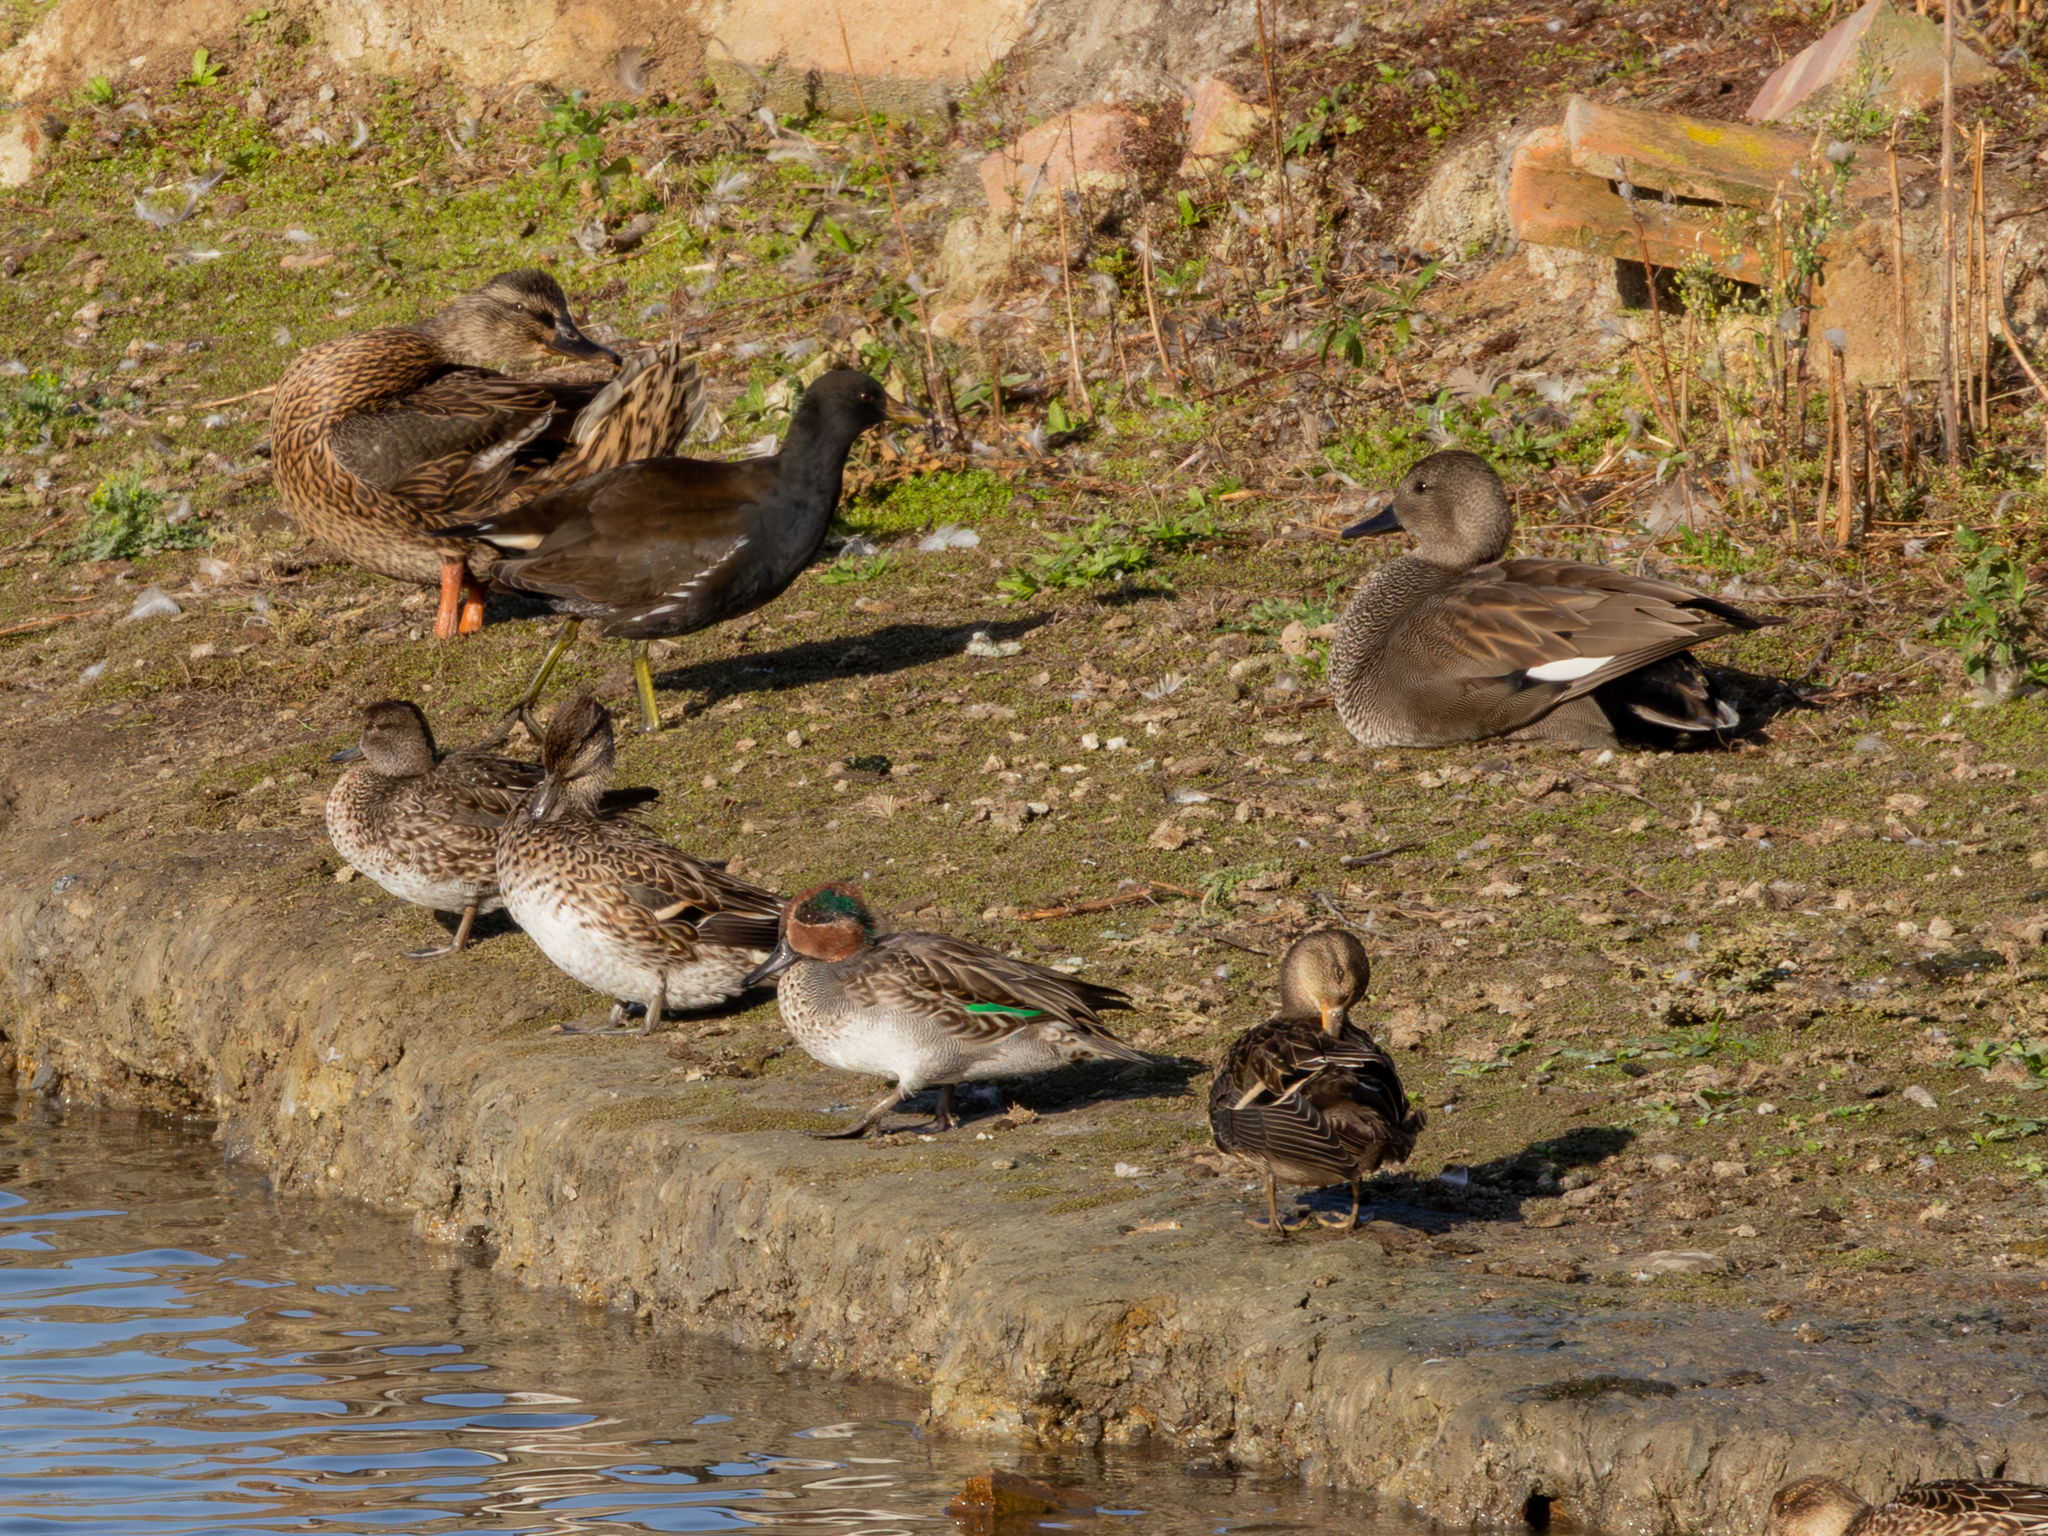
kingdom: Animalia
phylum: Chordata
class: Aves
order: Anseriformes
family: Anatidae
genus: Anas
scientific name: Anas crecca
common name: Eurasian teal
